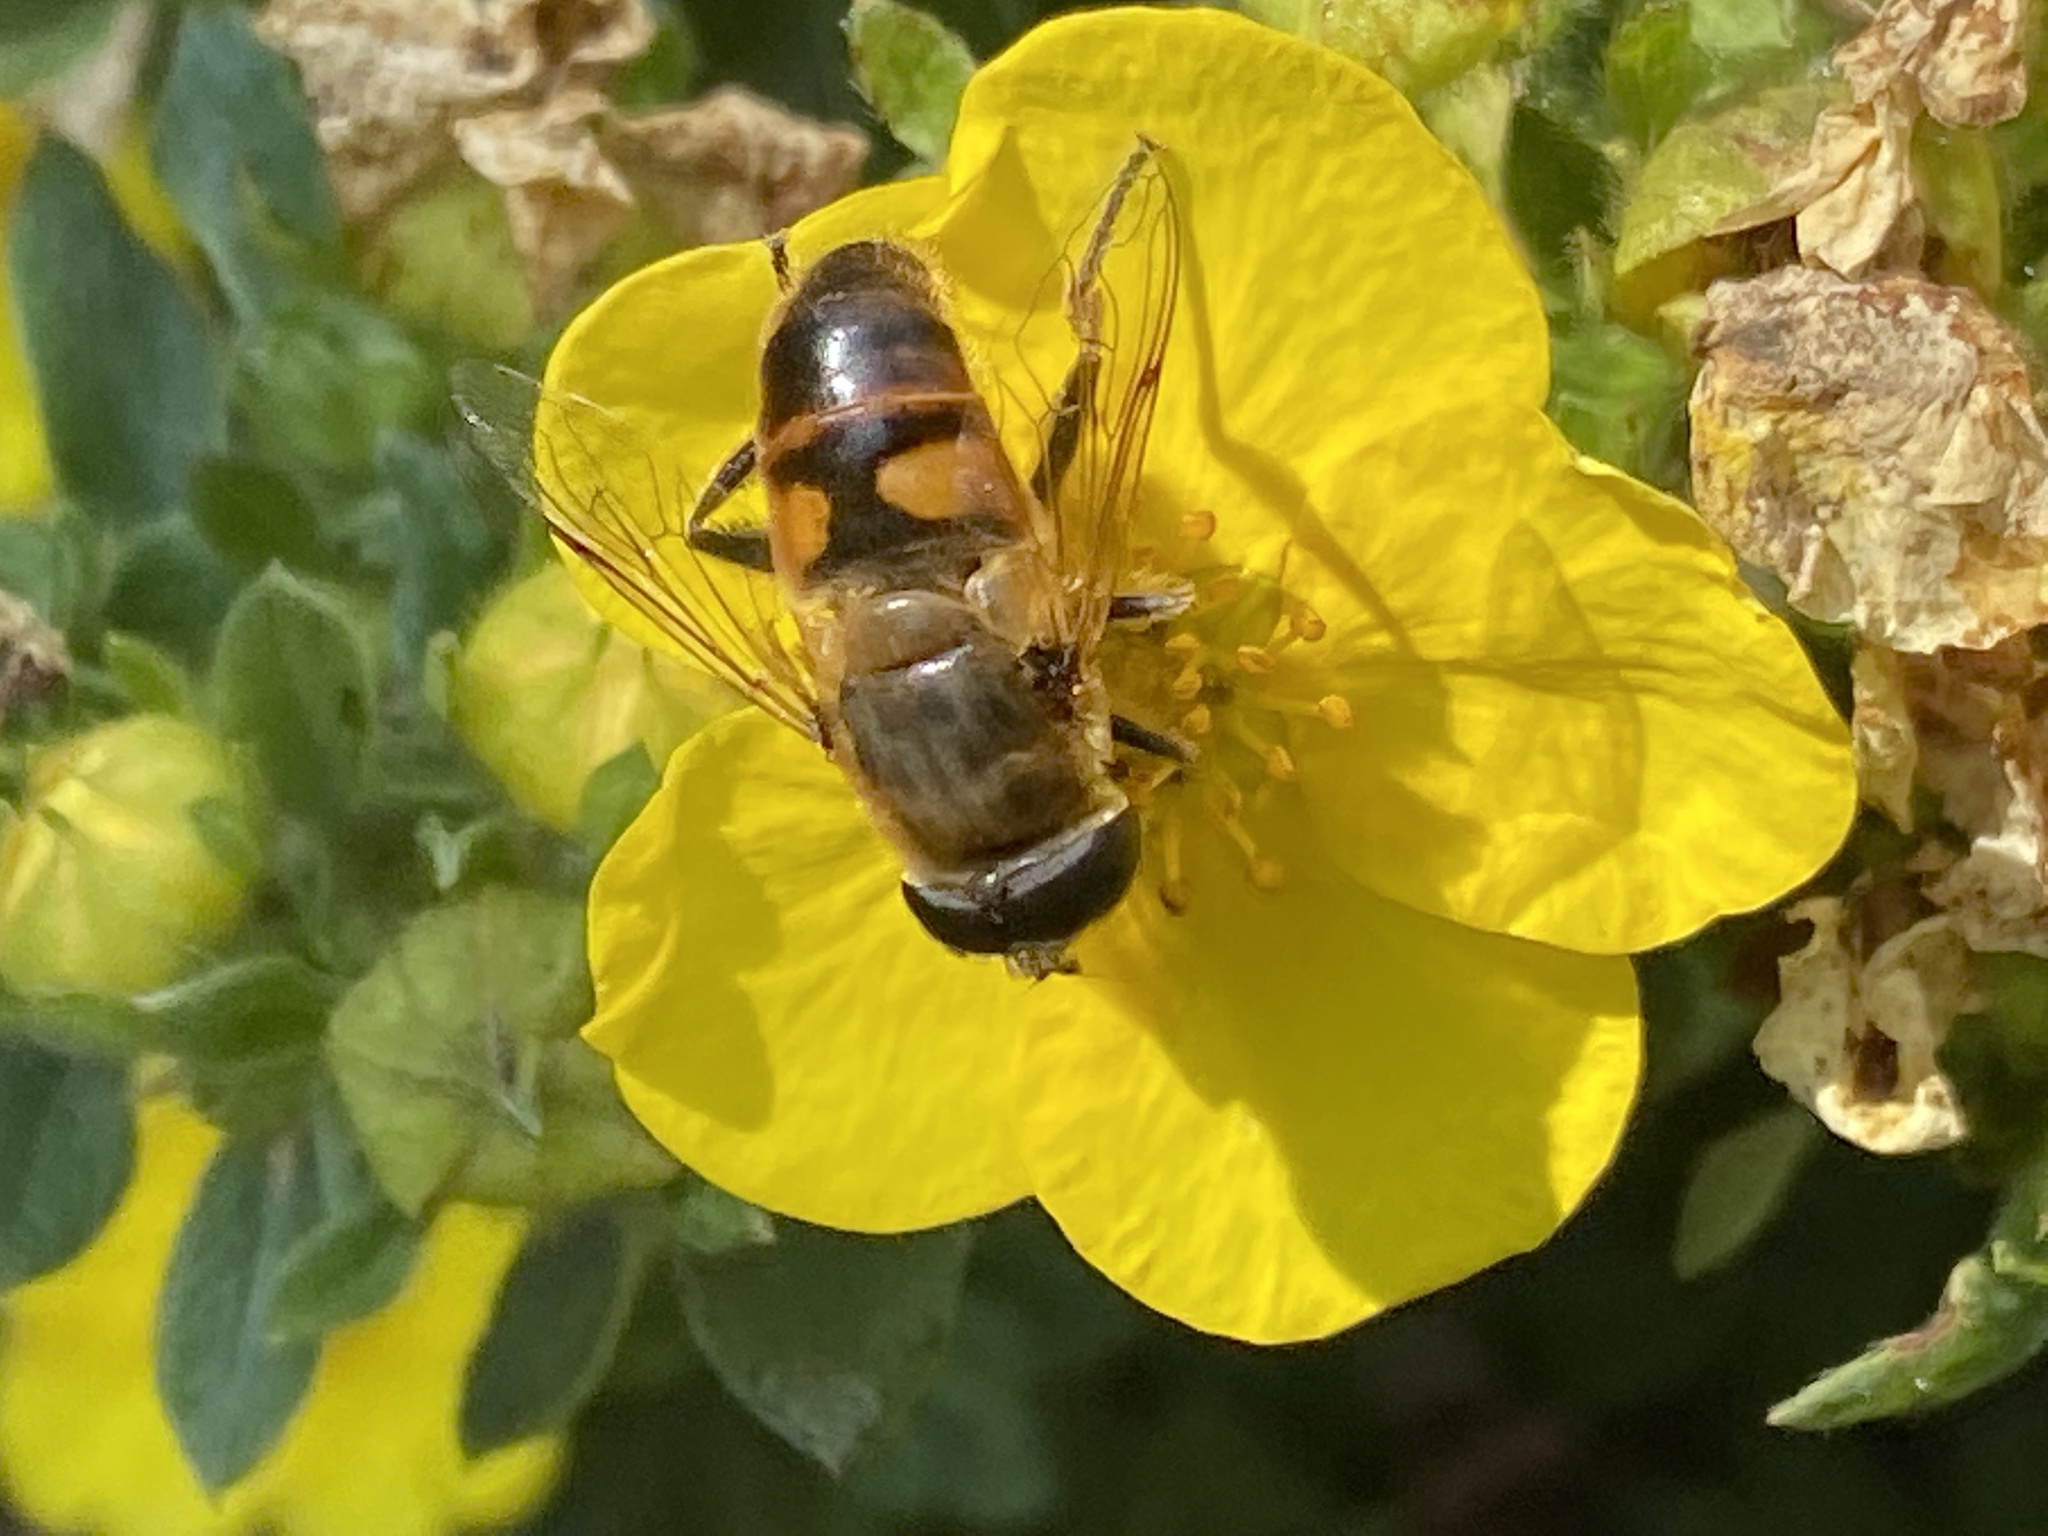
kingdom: Animalia
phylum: Arthropoda
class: Insecta
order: Diptera
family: Syrphidae
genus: Eristalis
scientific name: Eristalis tenax
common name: Drone fly
